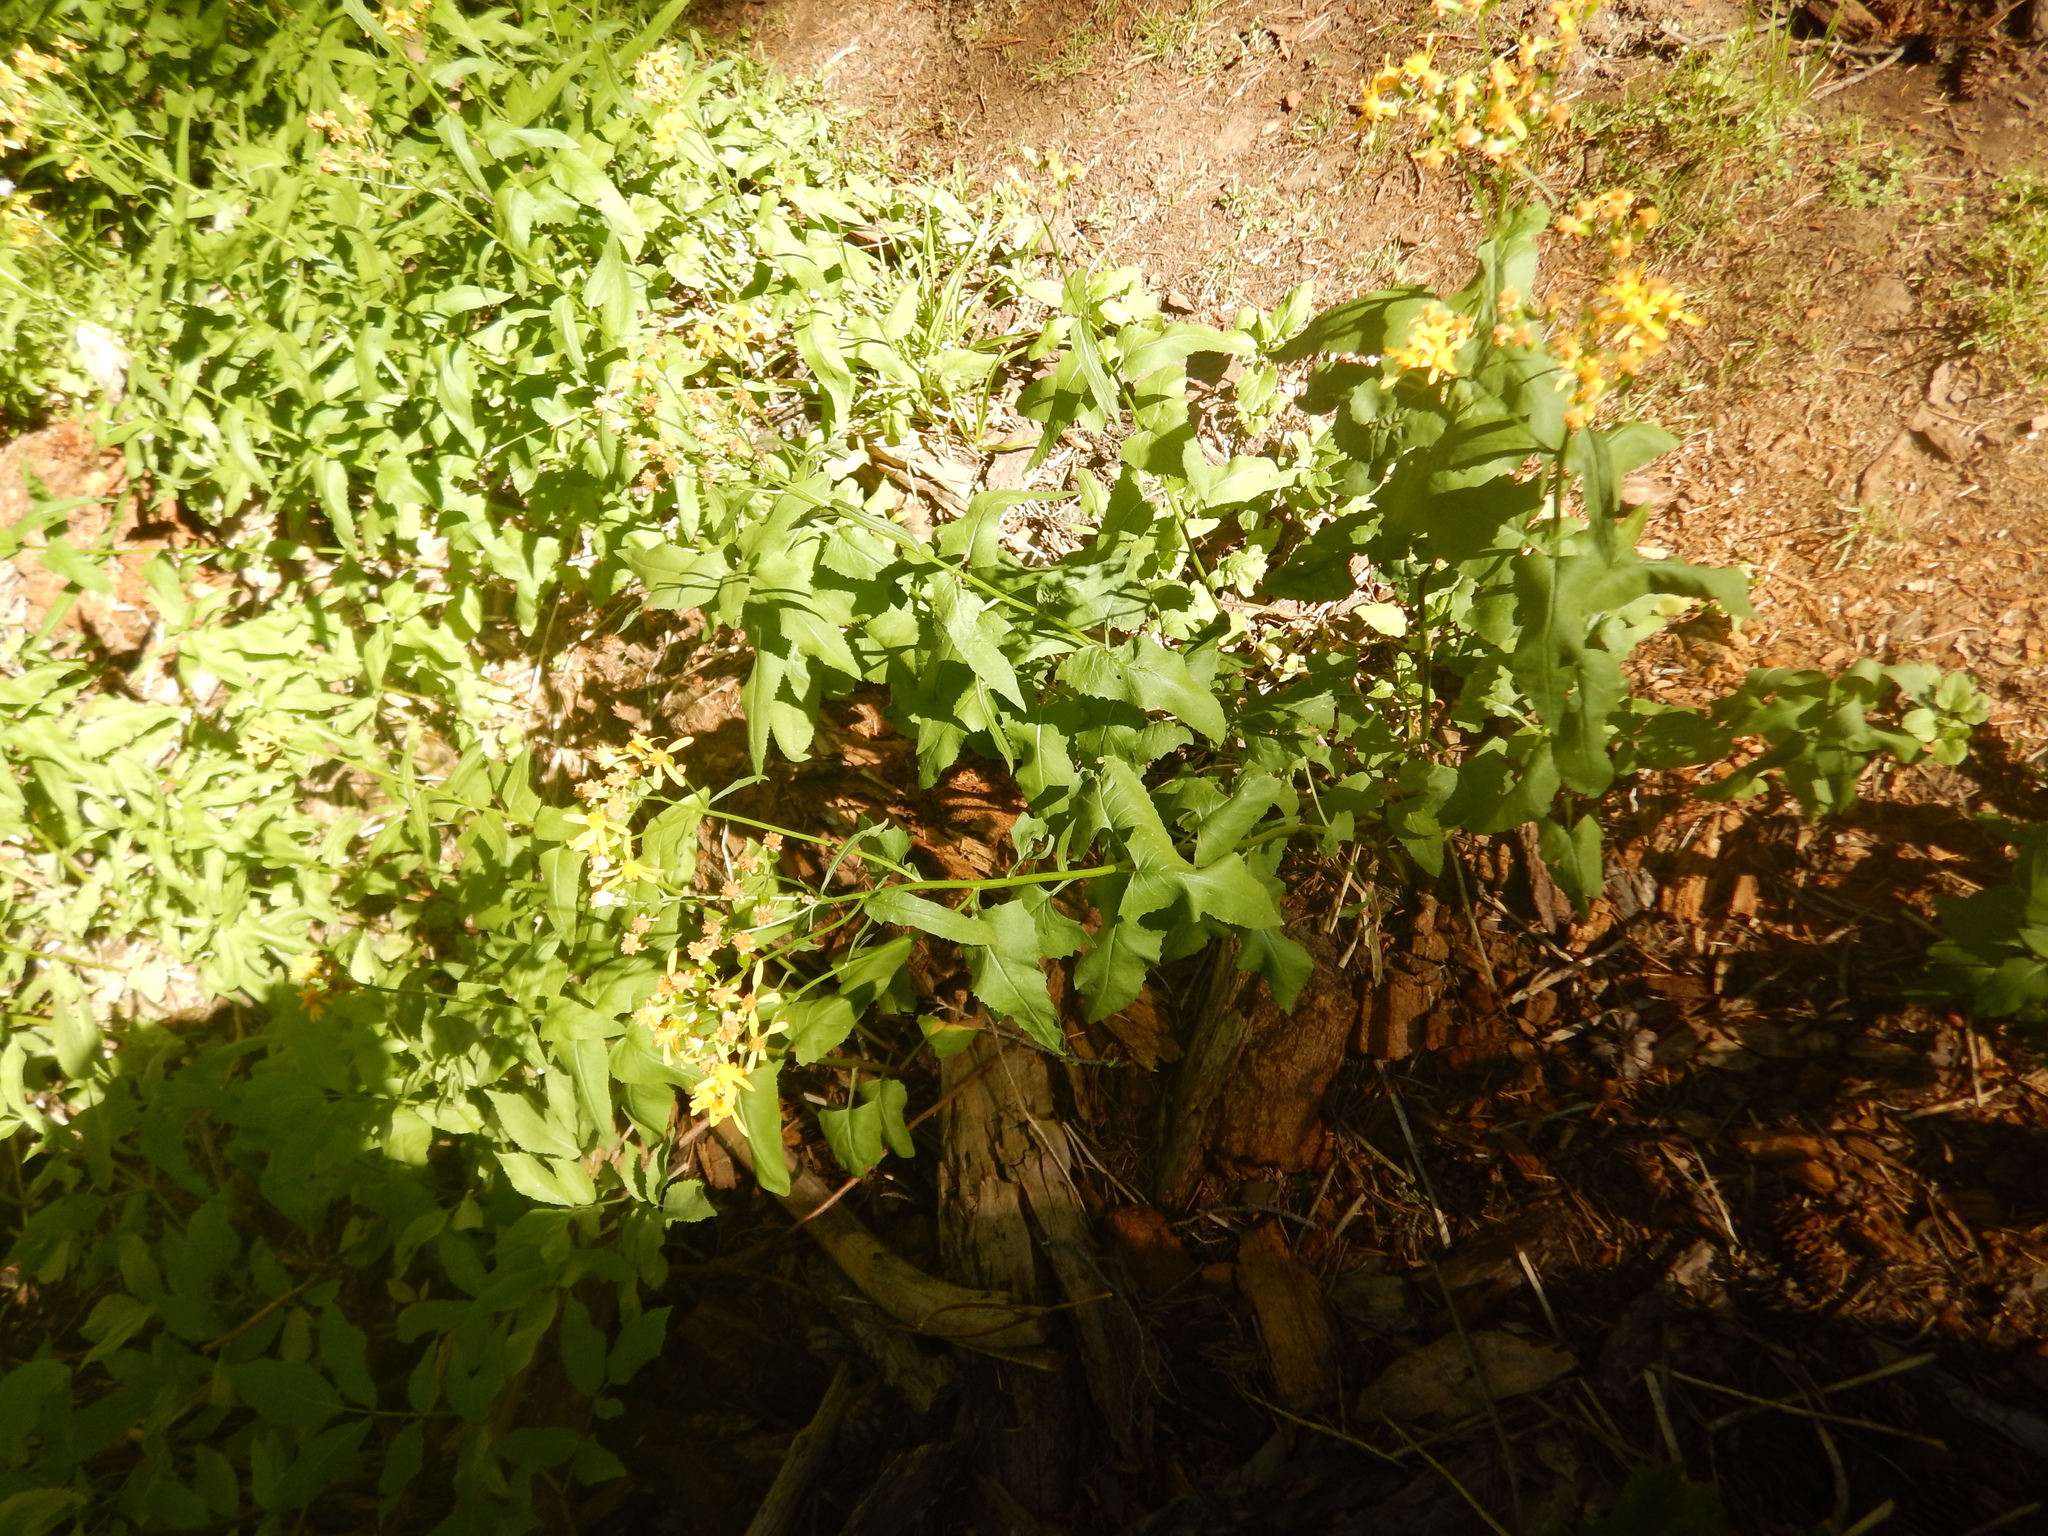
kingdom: Plantae
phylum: Tracheophyta
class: Magnoliopsida
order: Asterales
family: Asteraceae
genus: Senecio
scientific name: Senecio triangularis
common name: Arrowleaf butterweed
